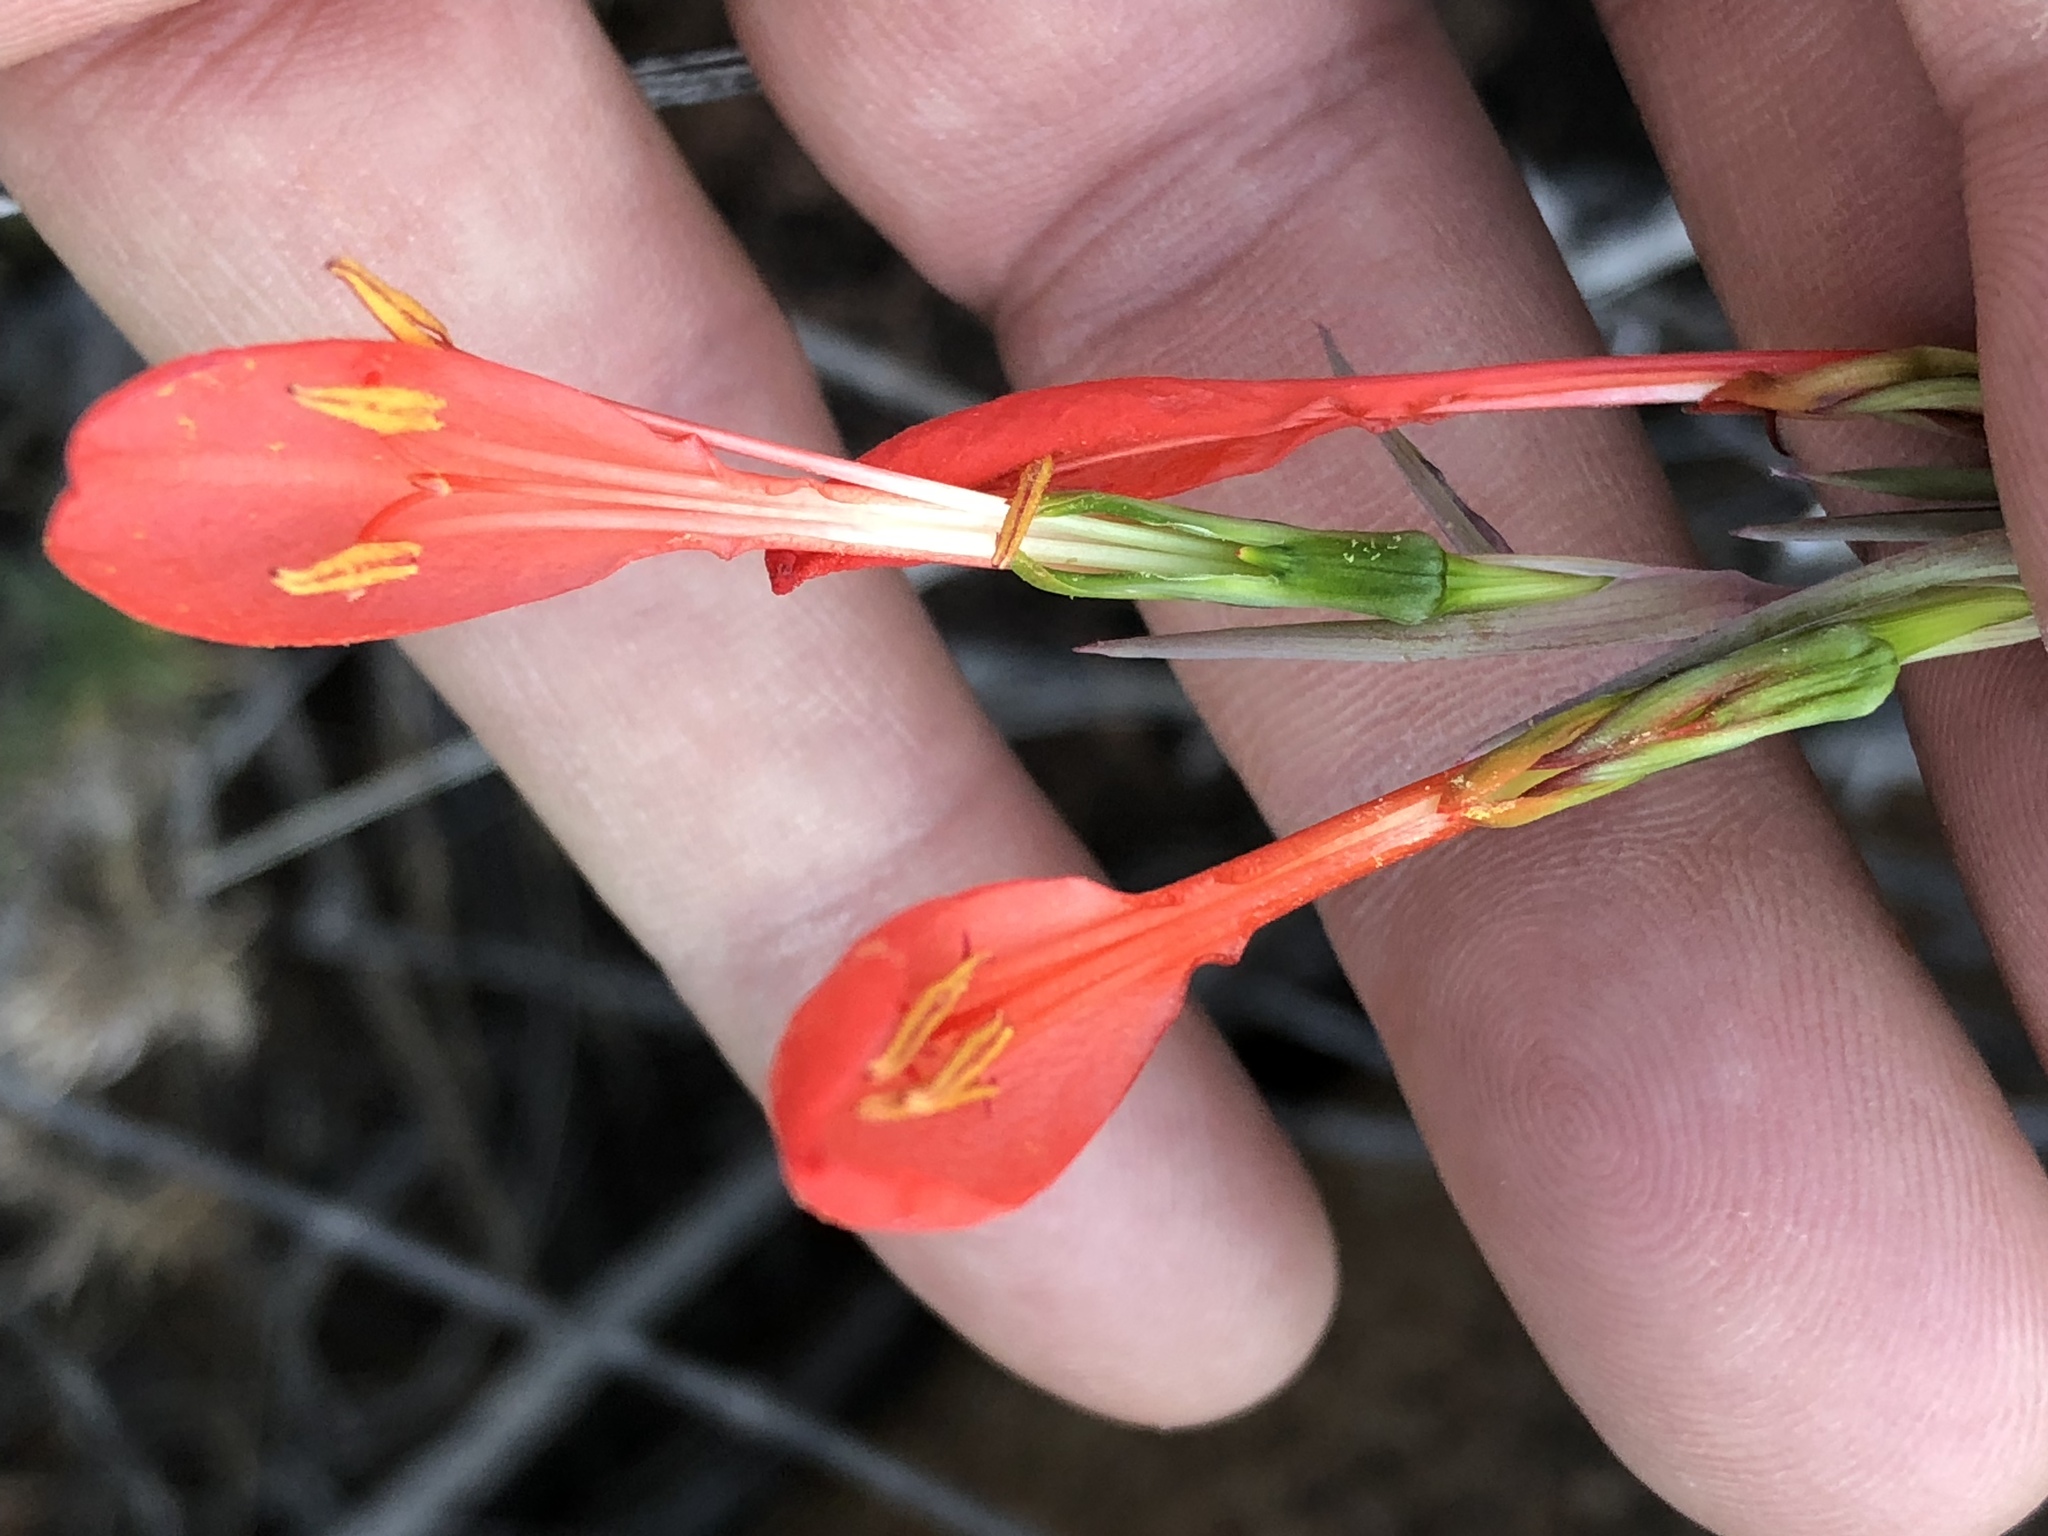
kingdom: Plantae
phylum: Tracheophyta
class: Liliopsida
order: Asparagales
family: Iridaceae
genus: Gladiolus
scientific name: Gladiolus saccatus
